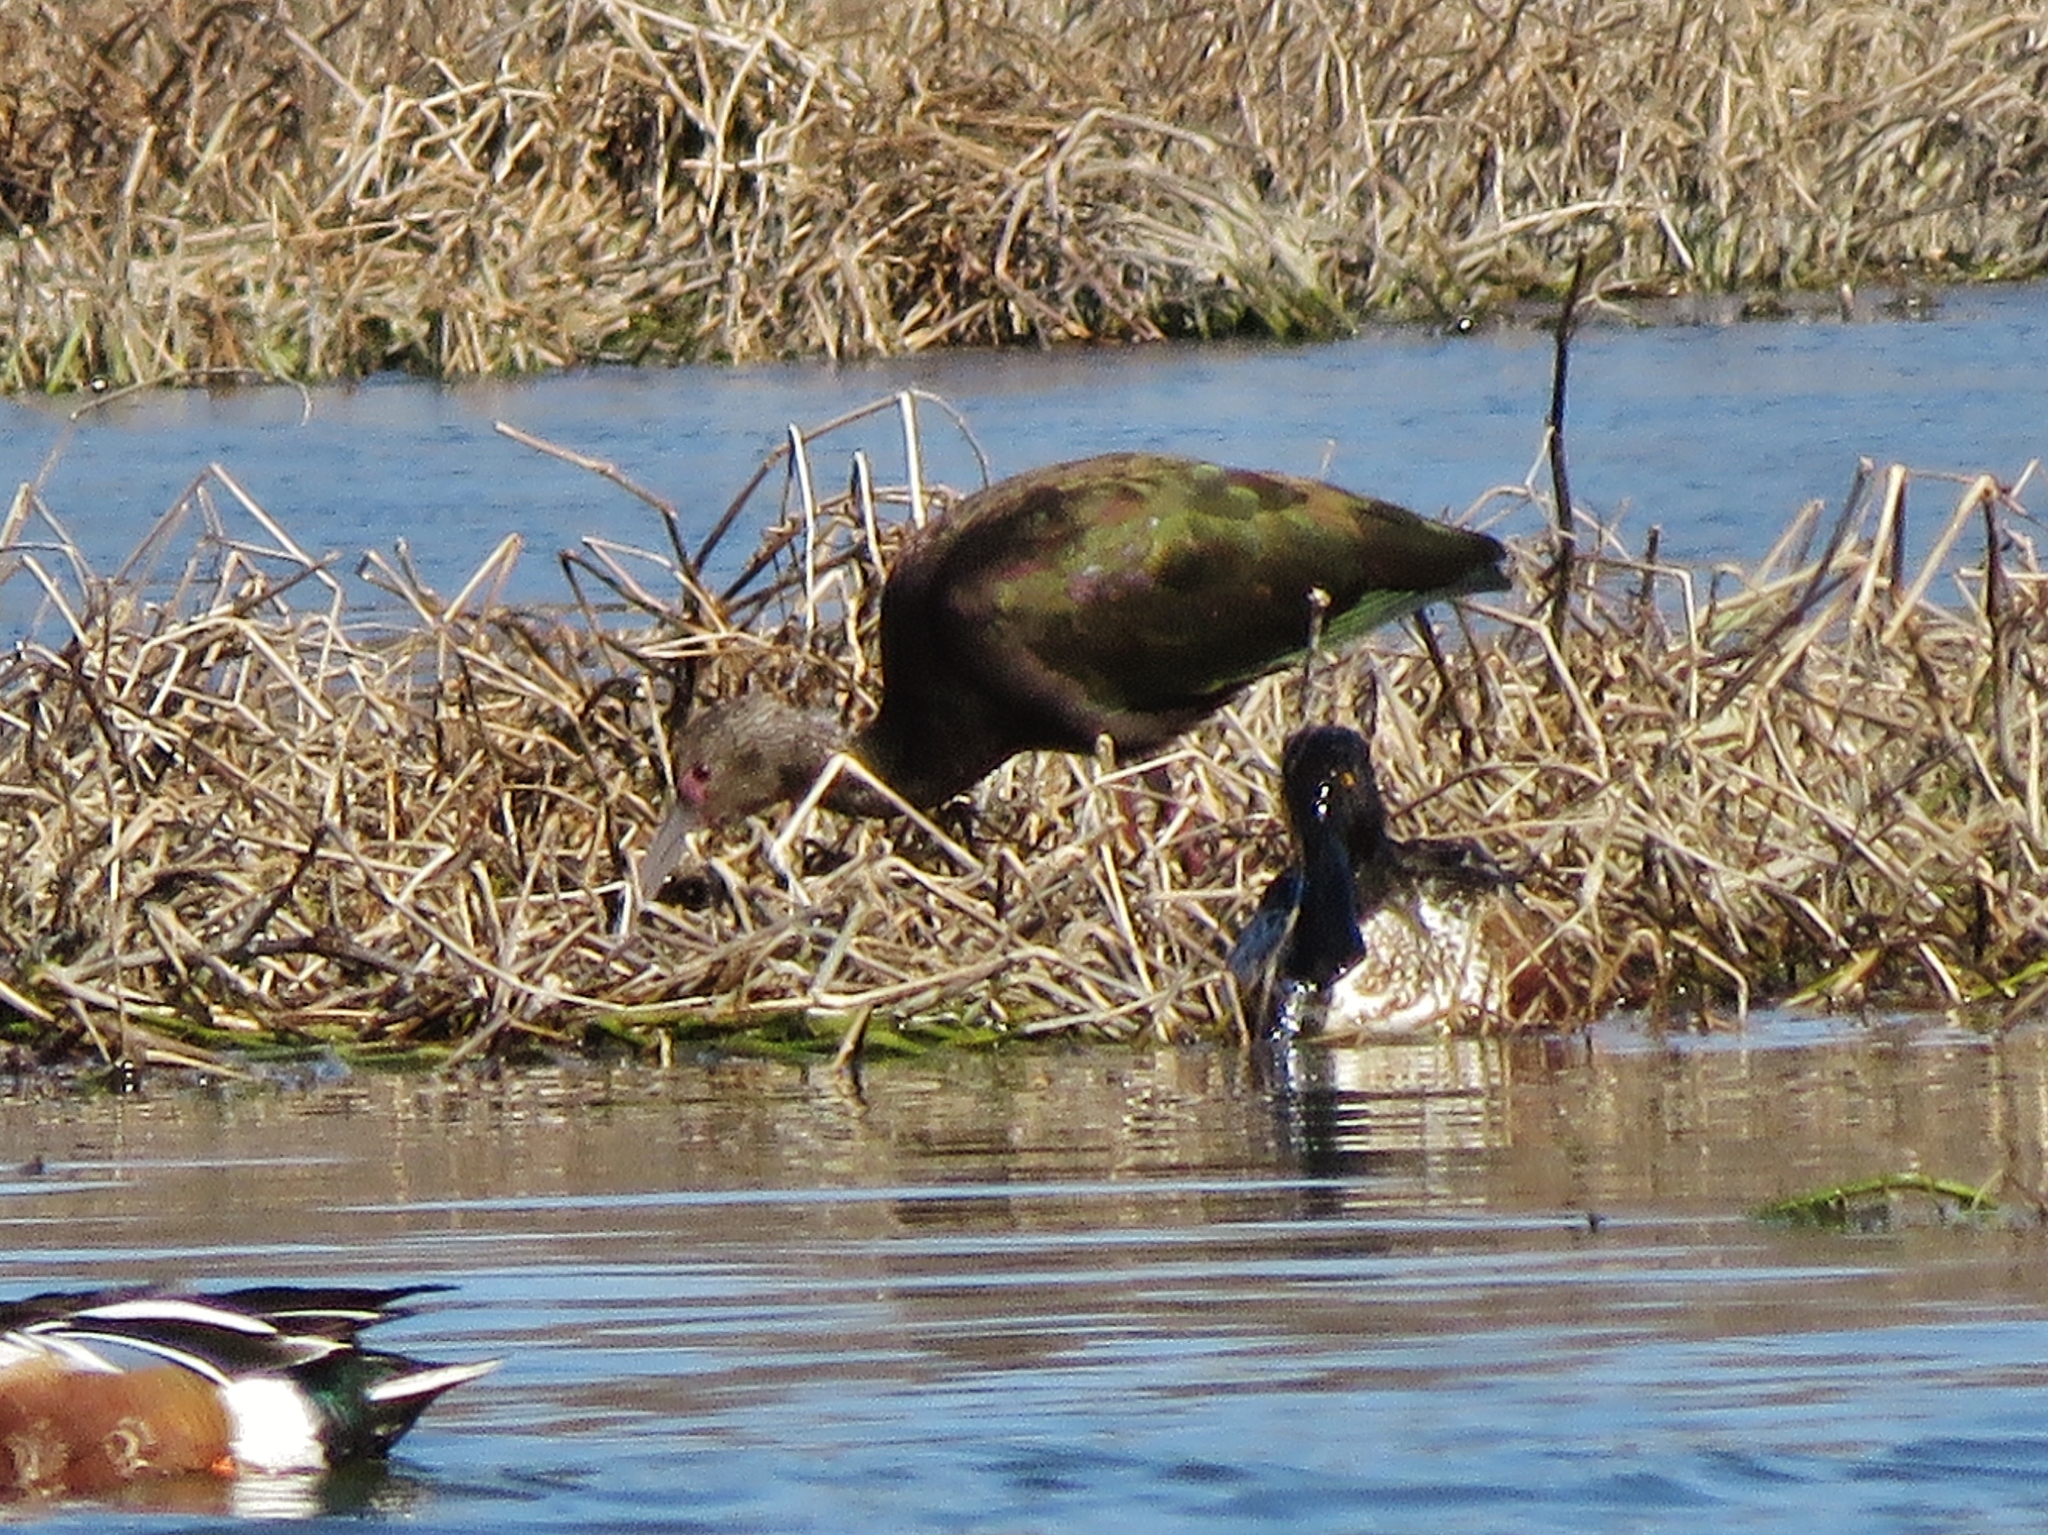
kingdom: Animalia
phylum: Chordata
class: Aves
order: Pelecaniformes
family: Threskiornithidae
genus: Plegadis
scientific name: Plegadis chihi
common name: White-faced ibis
